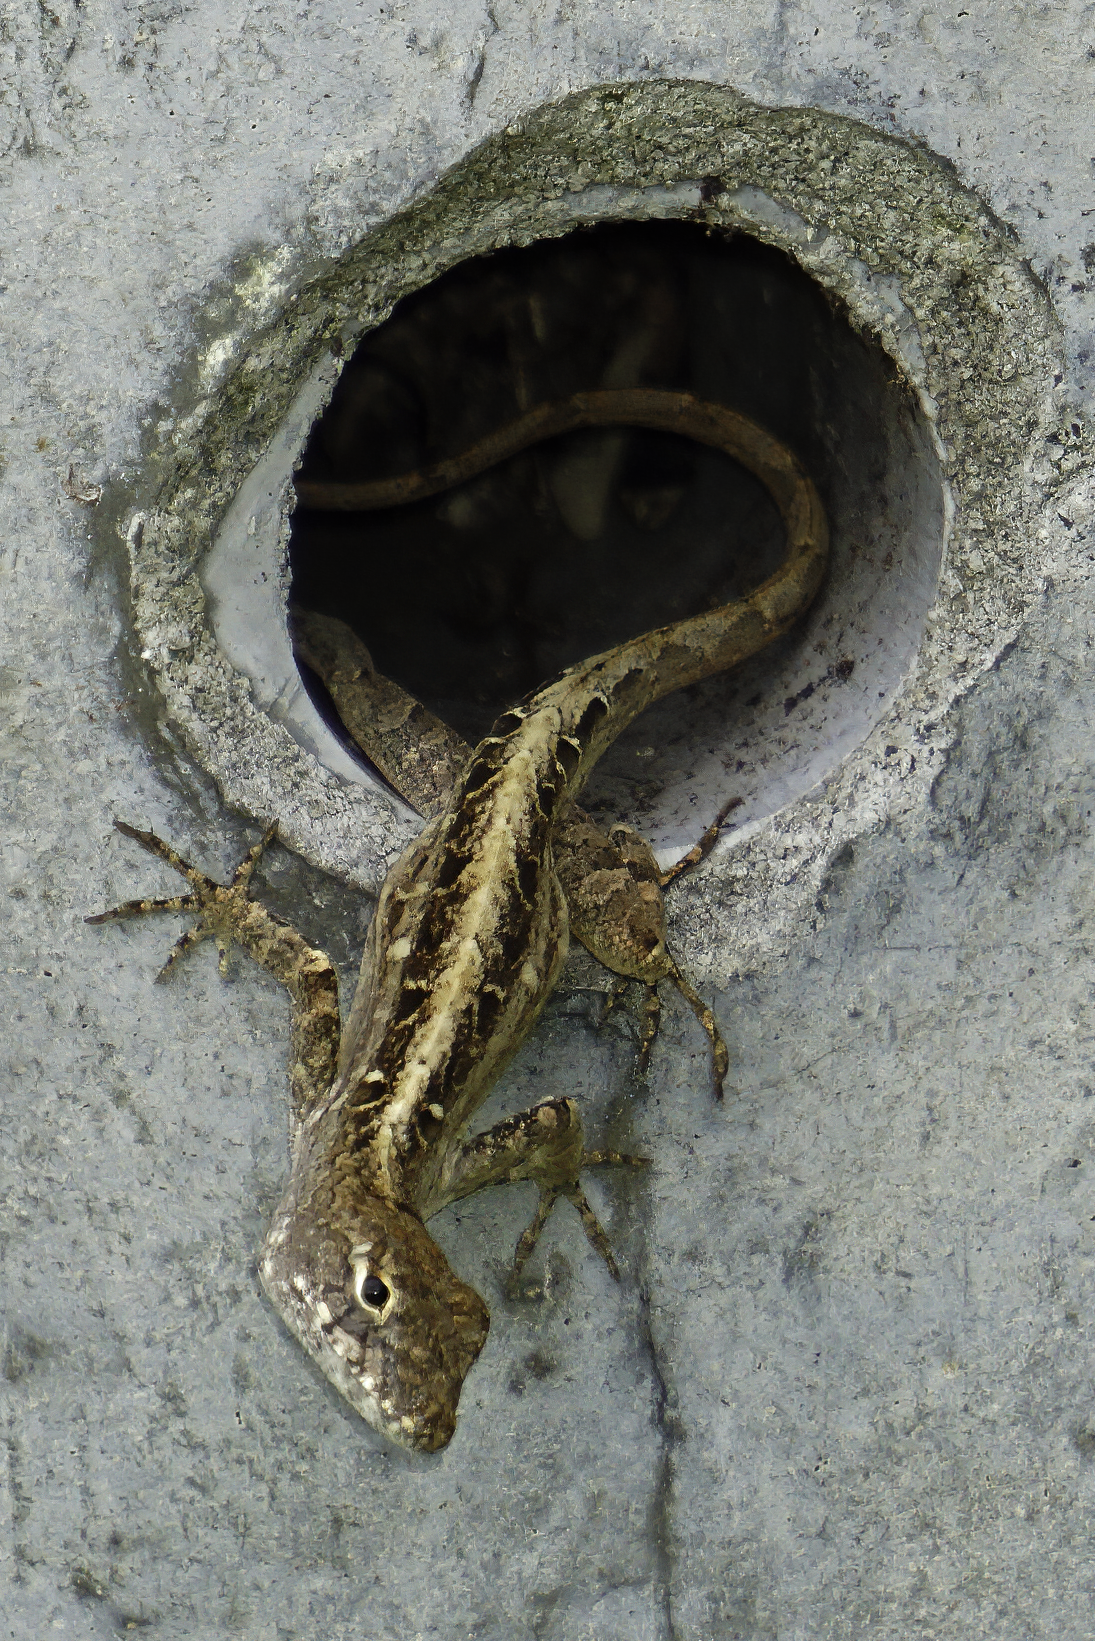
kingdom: Animalia
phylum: Chordata
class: Squamata
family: Dactyloidae
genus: Anolis
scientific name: Anolis sagrei
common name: Brown anole
